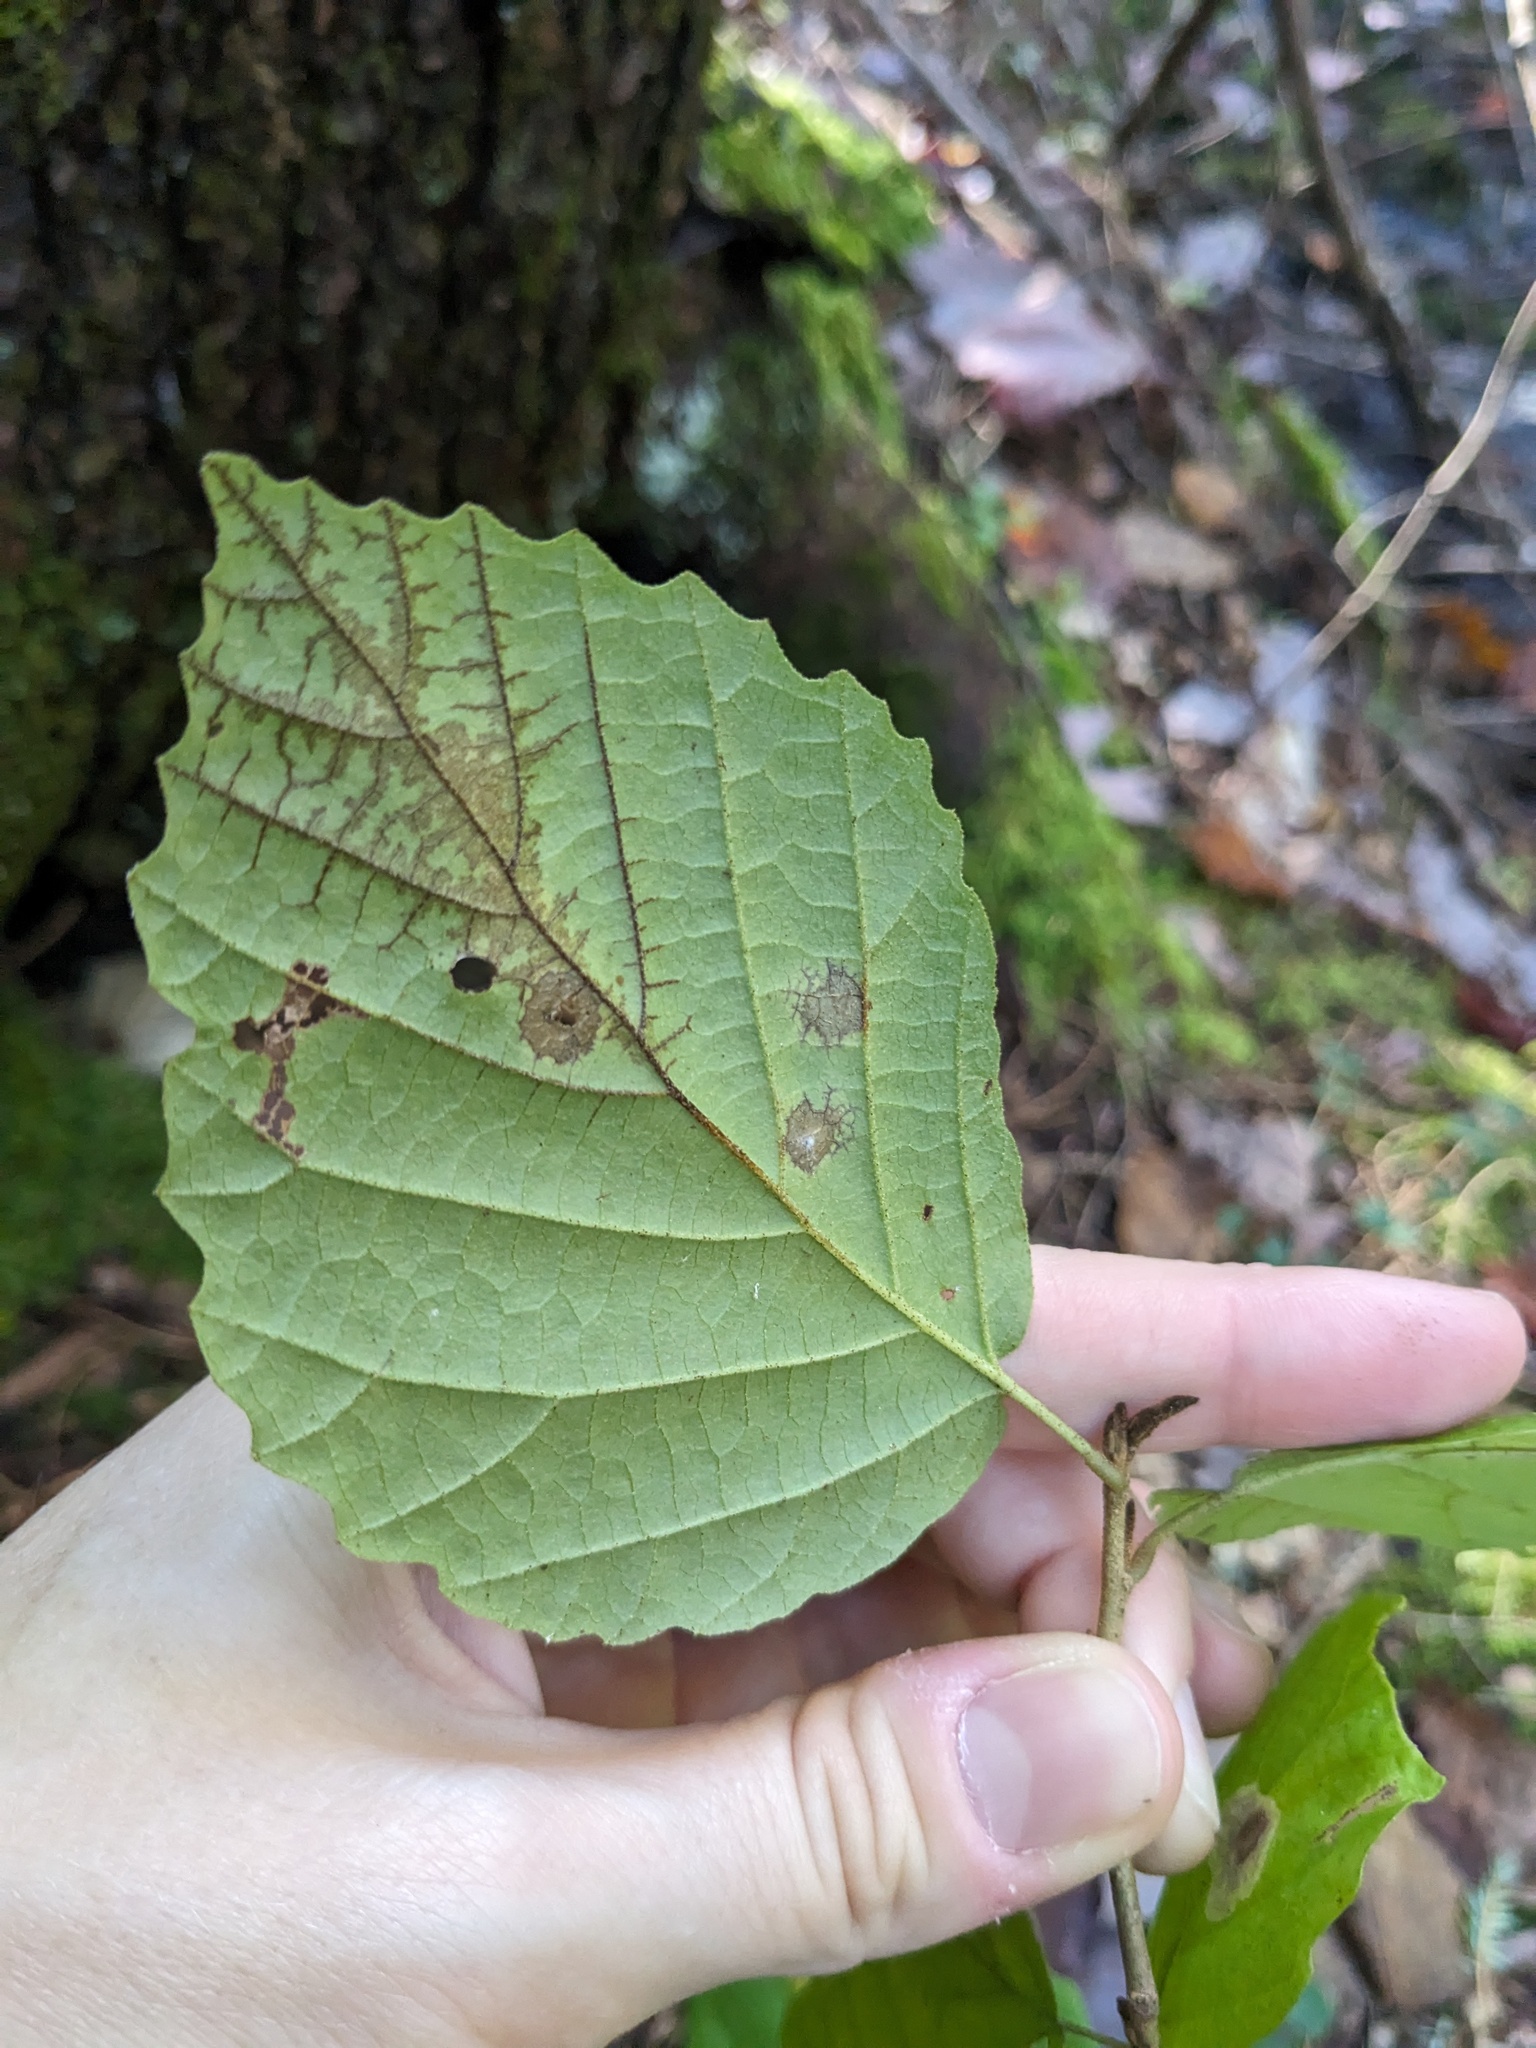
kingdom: Plantae
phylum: Tracheophyta
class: Magnoliopsida
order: Saxifragales
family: Hamamelidaceae
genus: Hamamelis
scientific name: Hamamelis virginiana
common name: Witch-hazel
